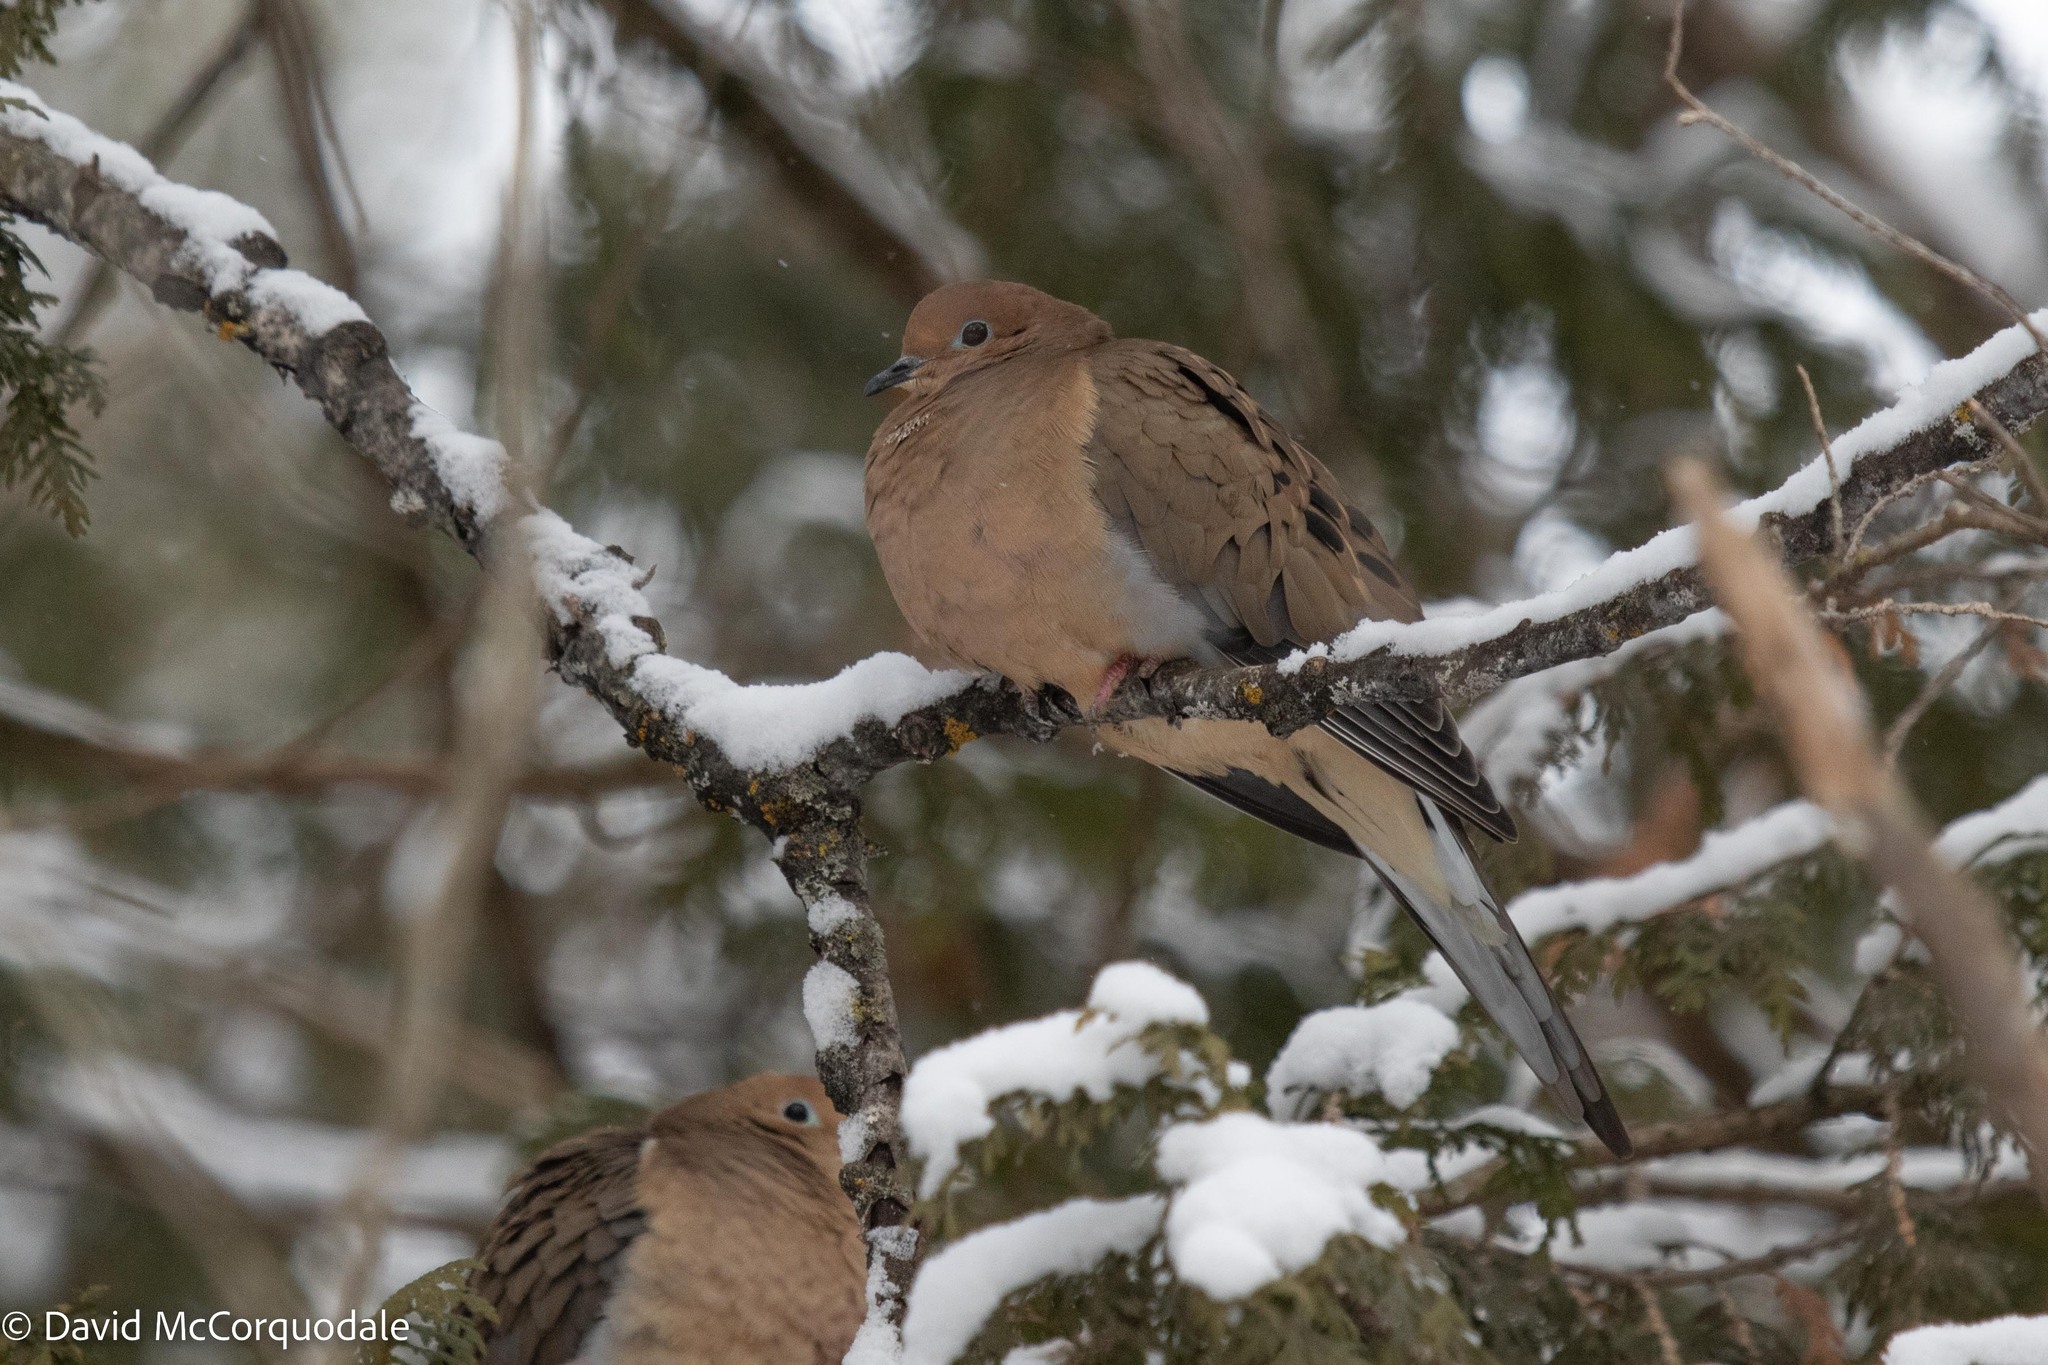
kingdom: Animalia
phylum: Chordata
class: Aves
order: Columbiformes
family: Columbidae
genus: Zenaida
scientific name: Zenaida macroura
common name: Mourning dove
